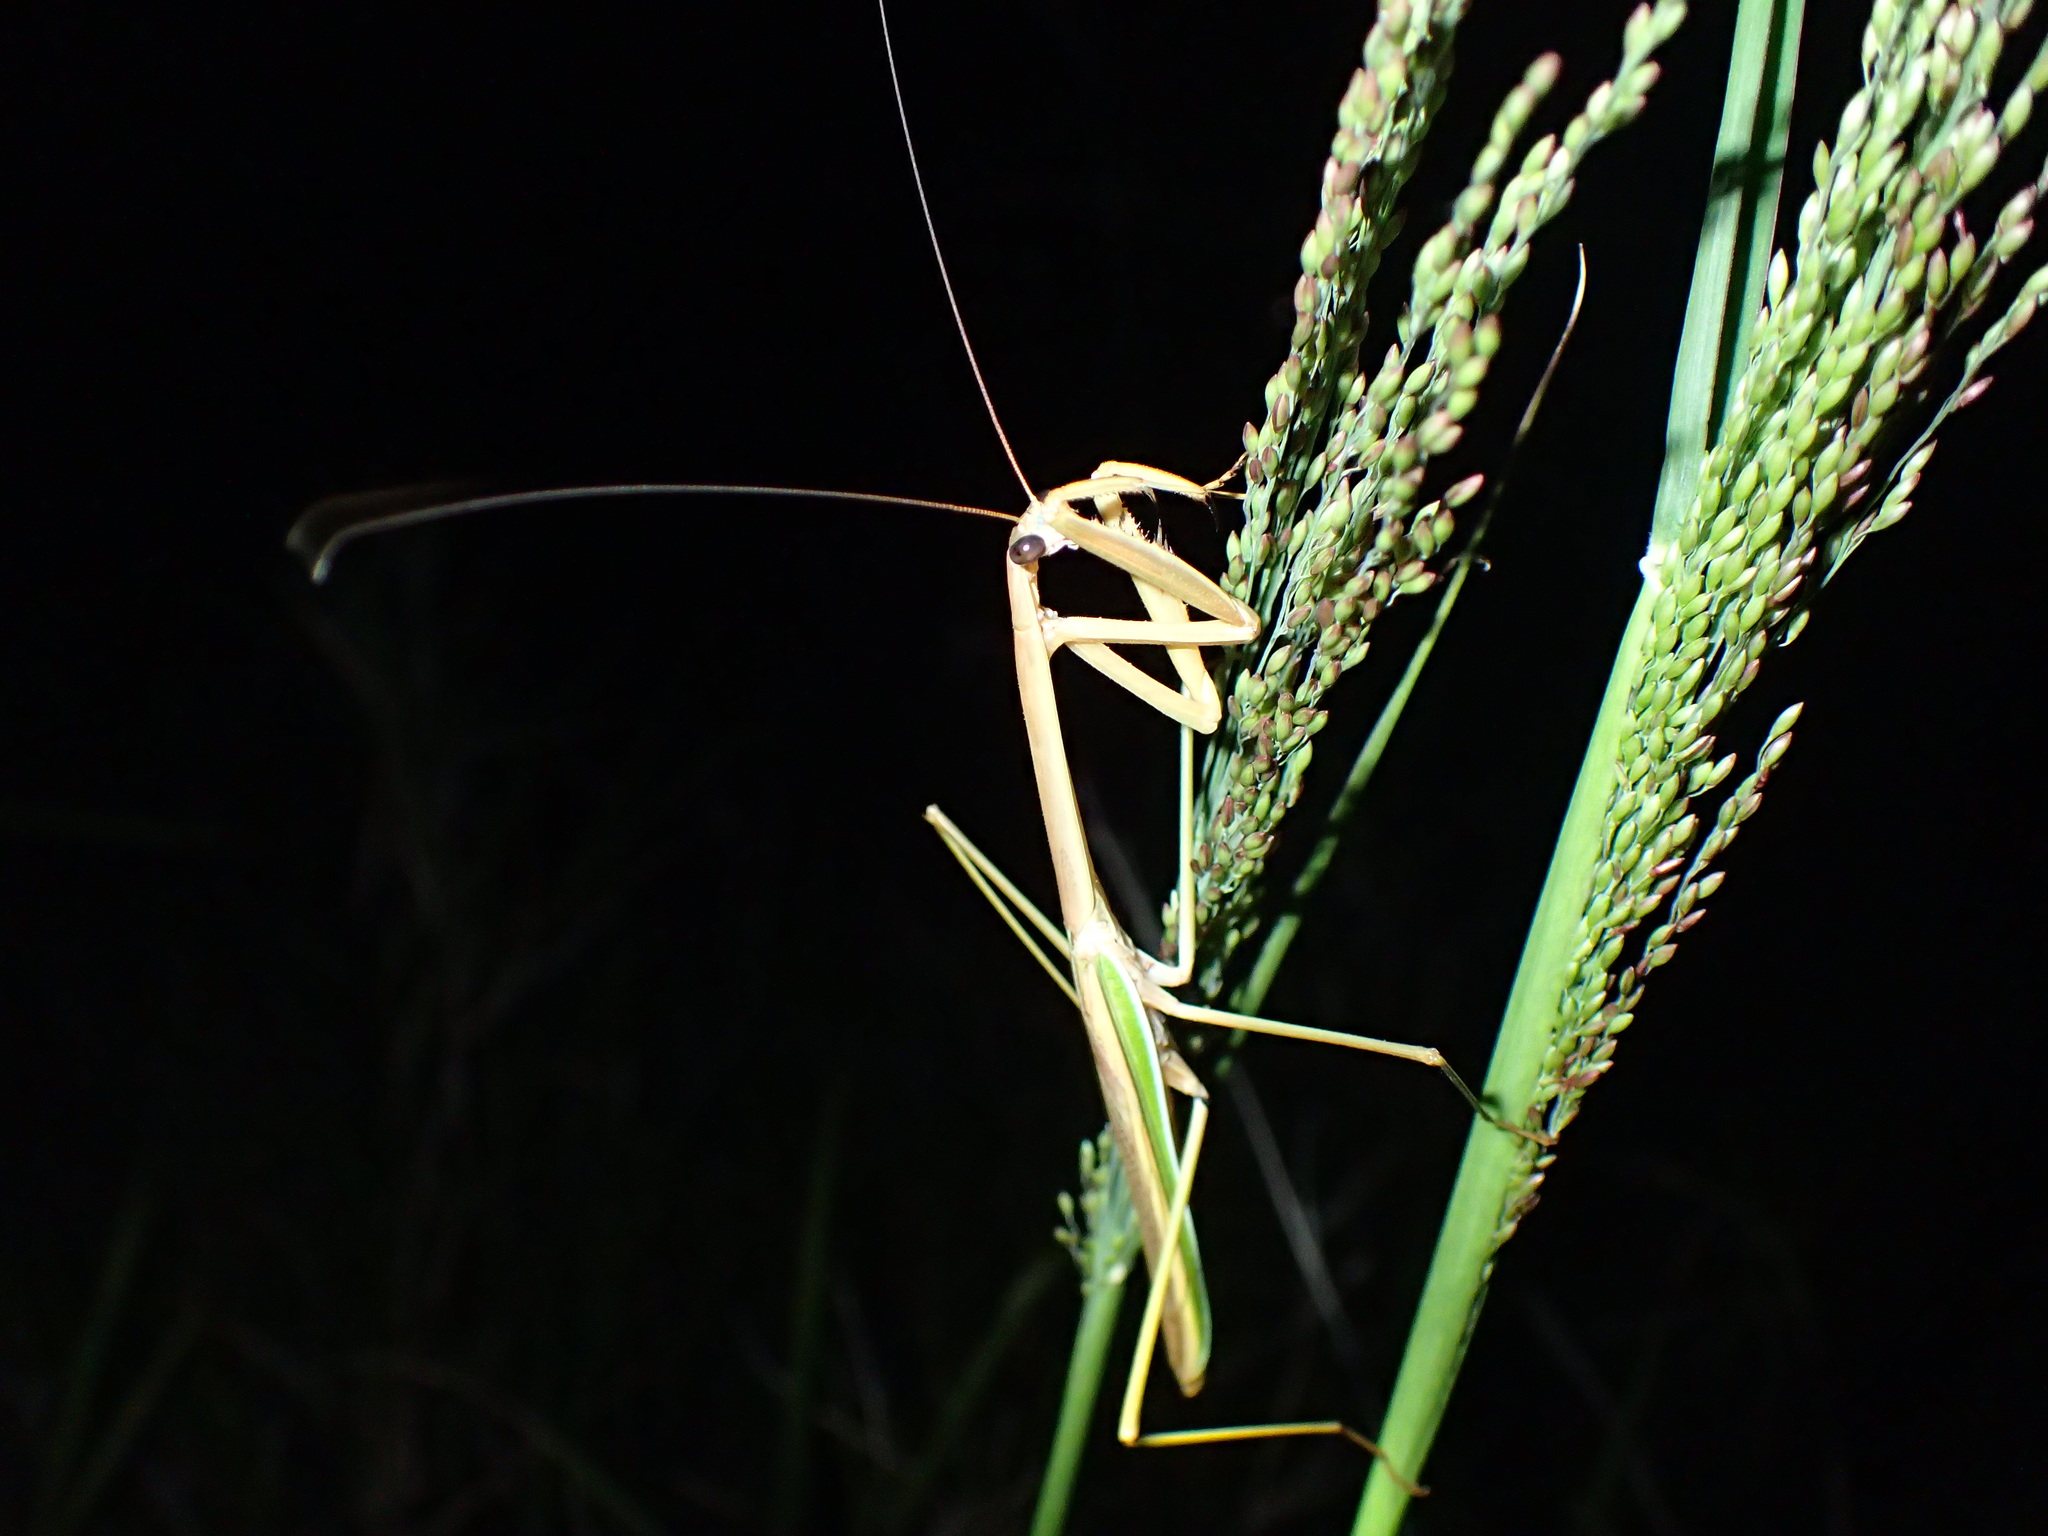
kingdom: Animalia
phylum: Arthropoda
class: Insecta
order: Mantodea
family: Mantidae
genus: Tenodera
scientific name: Tenodera superstitiosa
